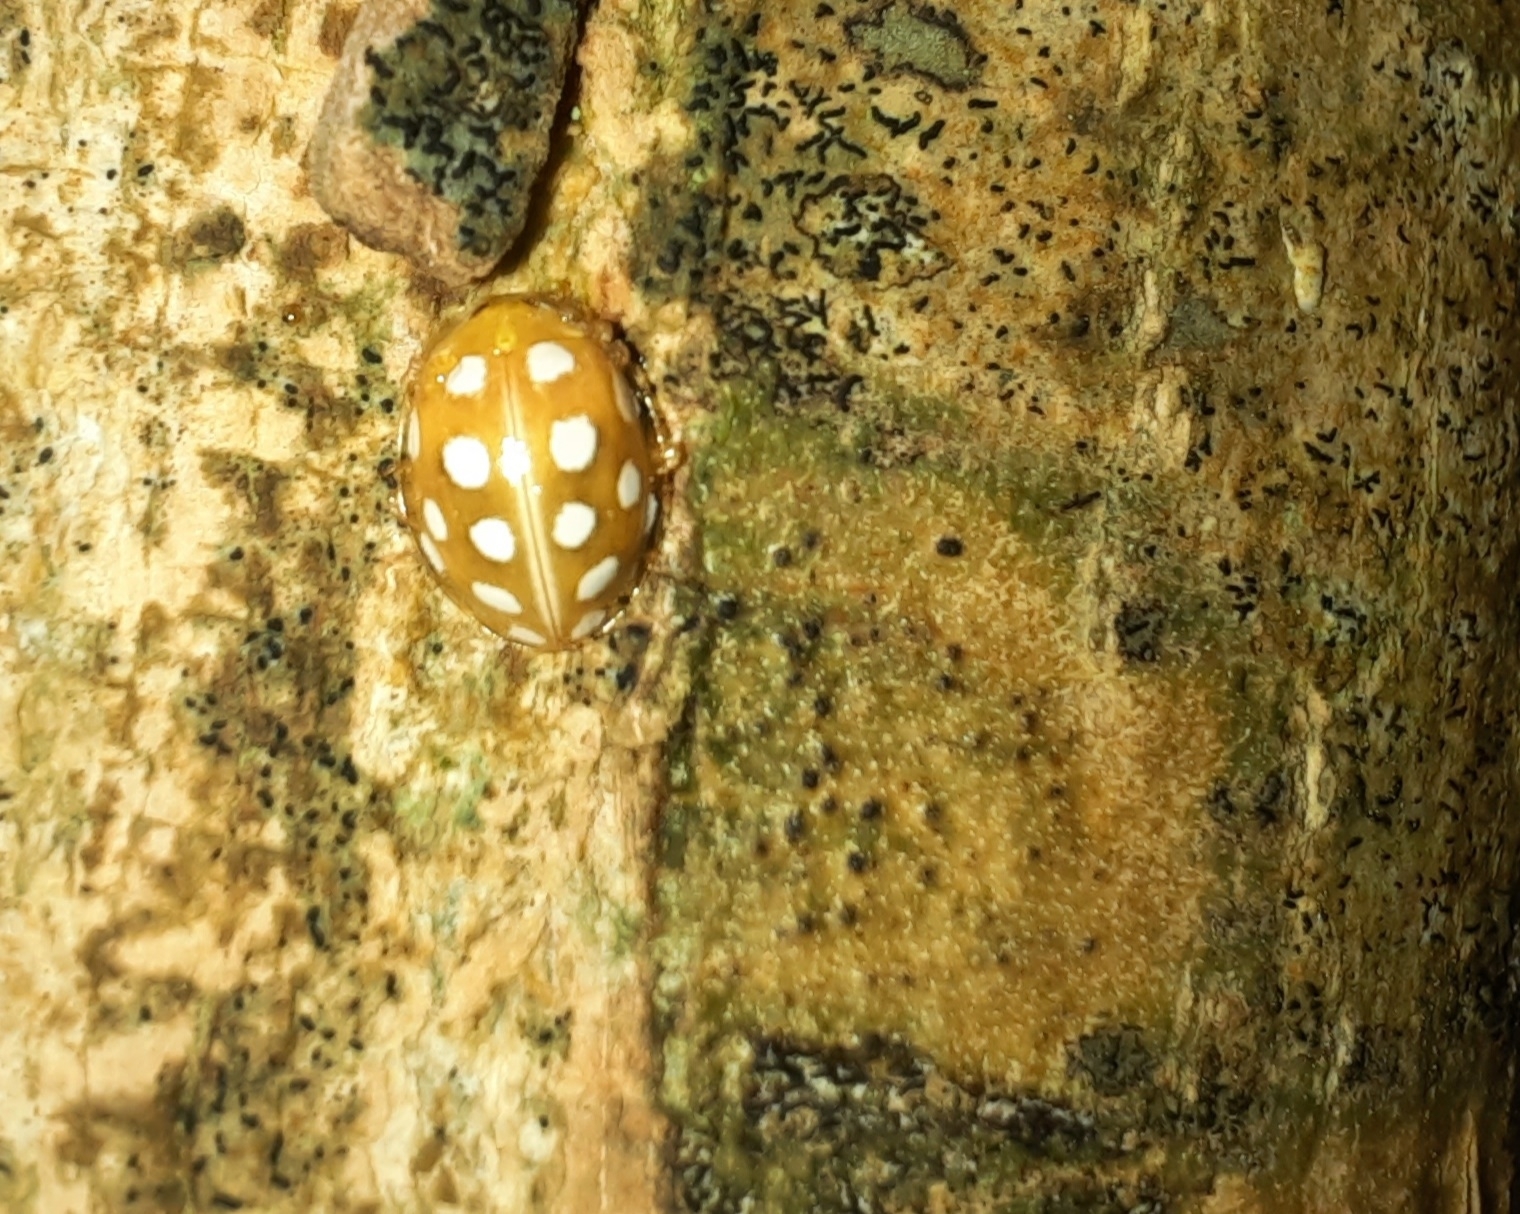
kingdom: Animalia
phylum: Arthropoda
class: Insecta
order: Coleoptera
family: Coccinellidae
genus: Halyzia
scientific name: Halyzia sedecimguttata
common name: Orange ladybird
